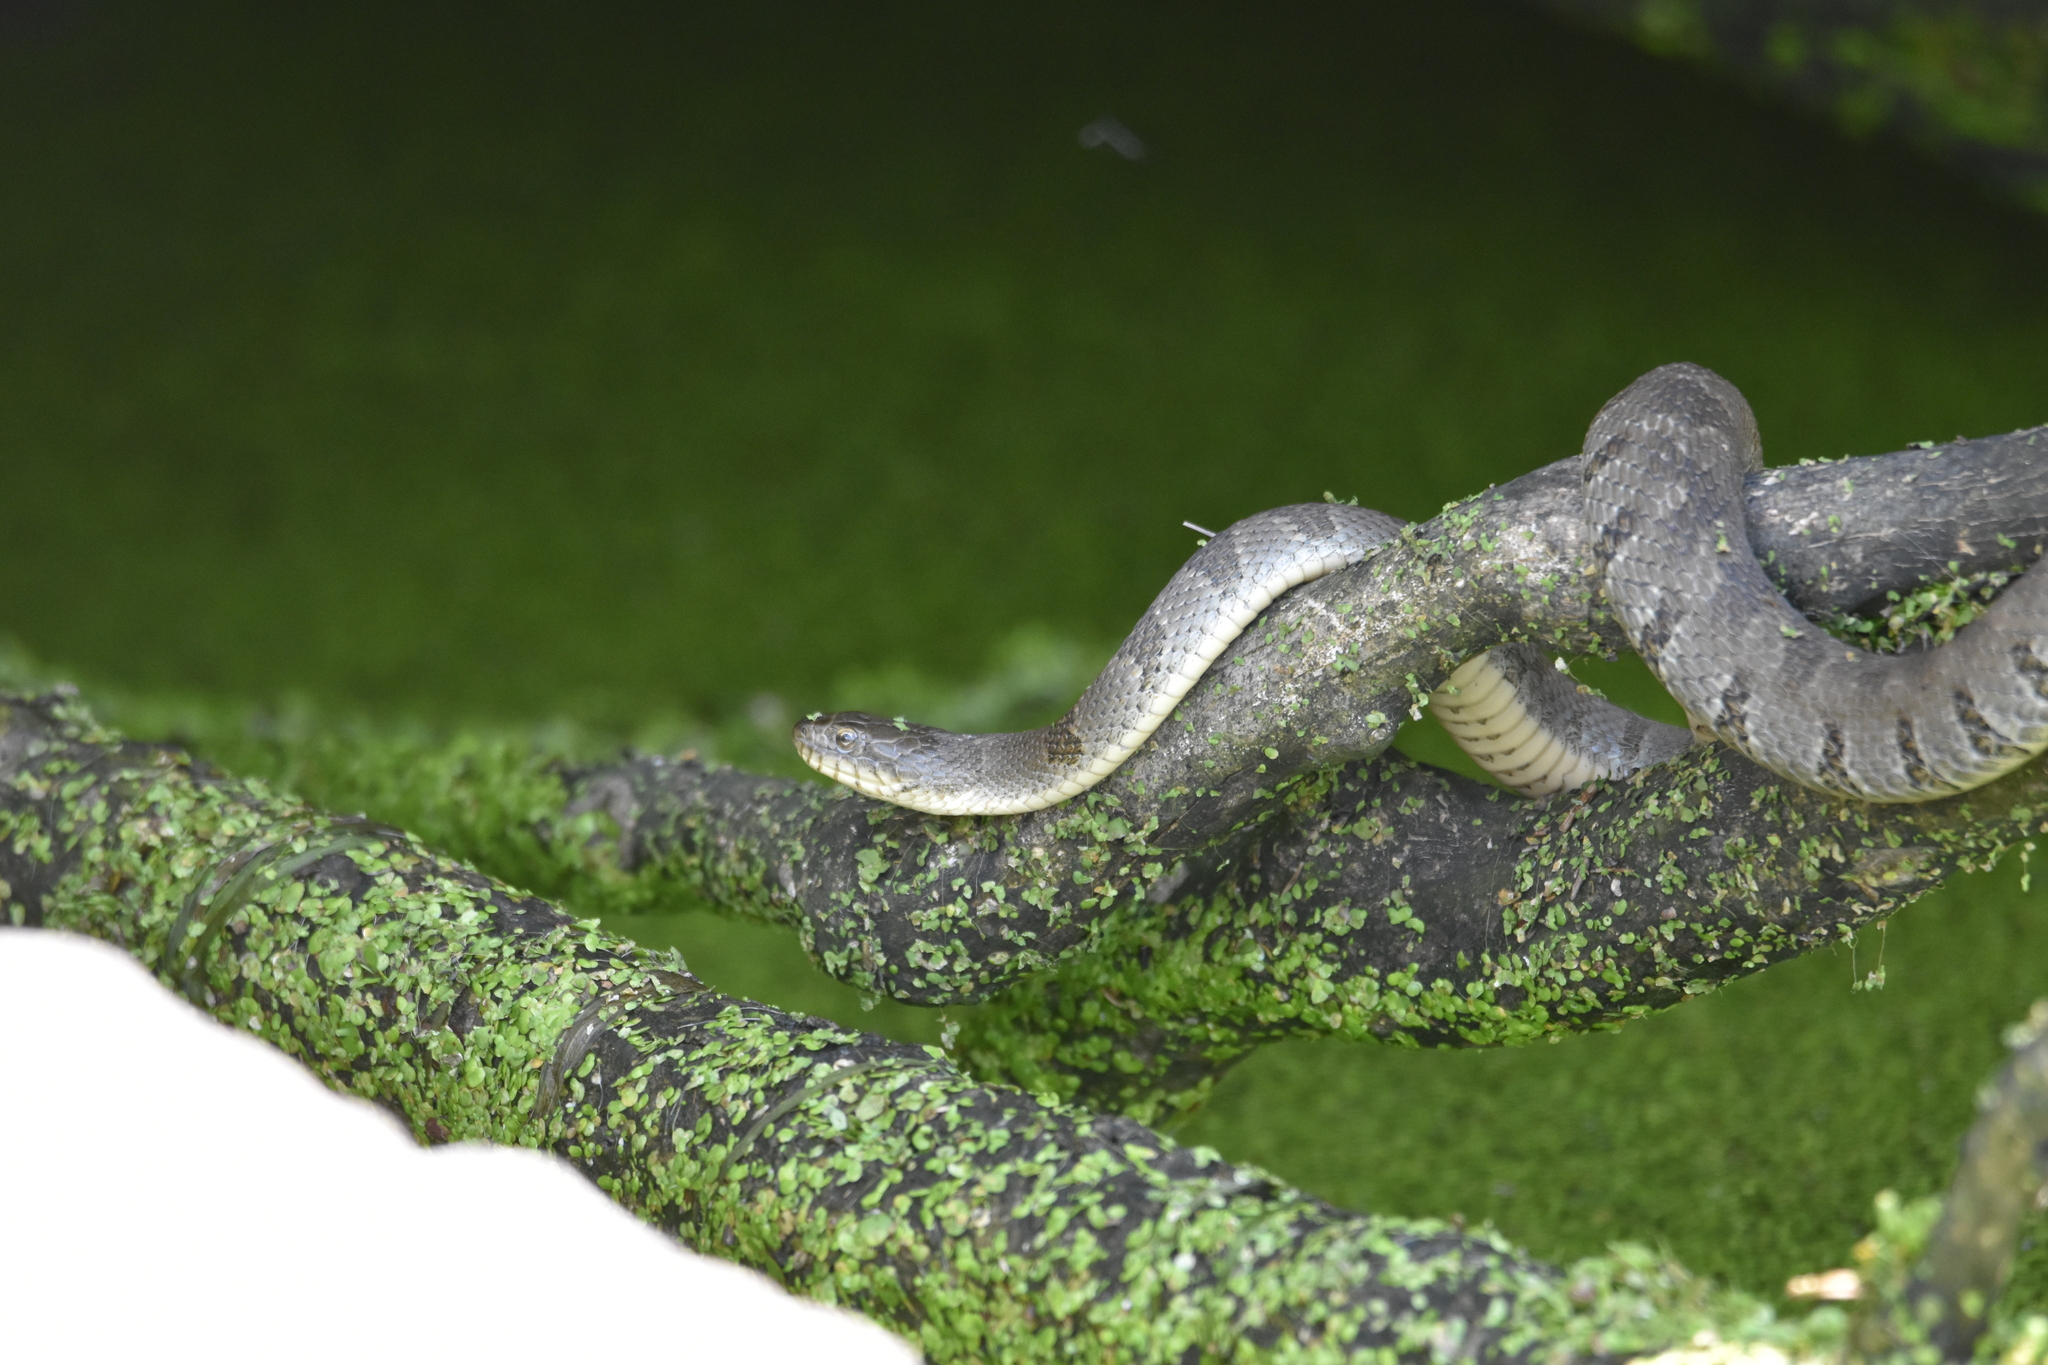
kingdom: Animalia
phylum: Chordata
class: Squamata
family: Colubridae
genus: Nerodia
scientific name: Nerodia sipedon
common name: Northern water snake
